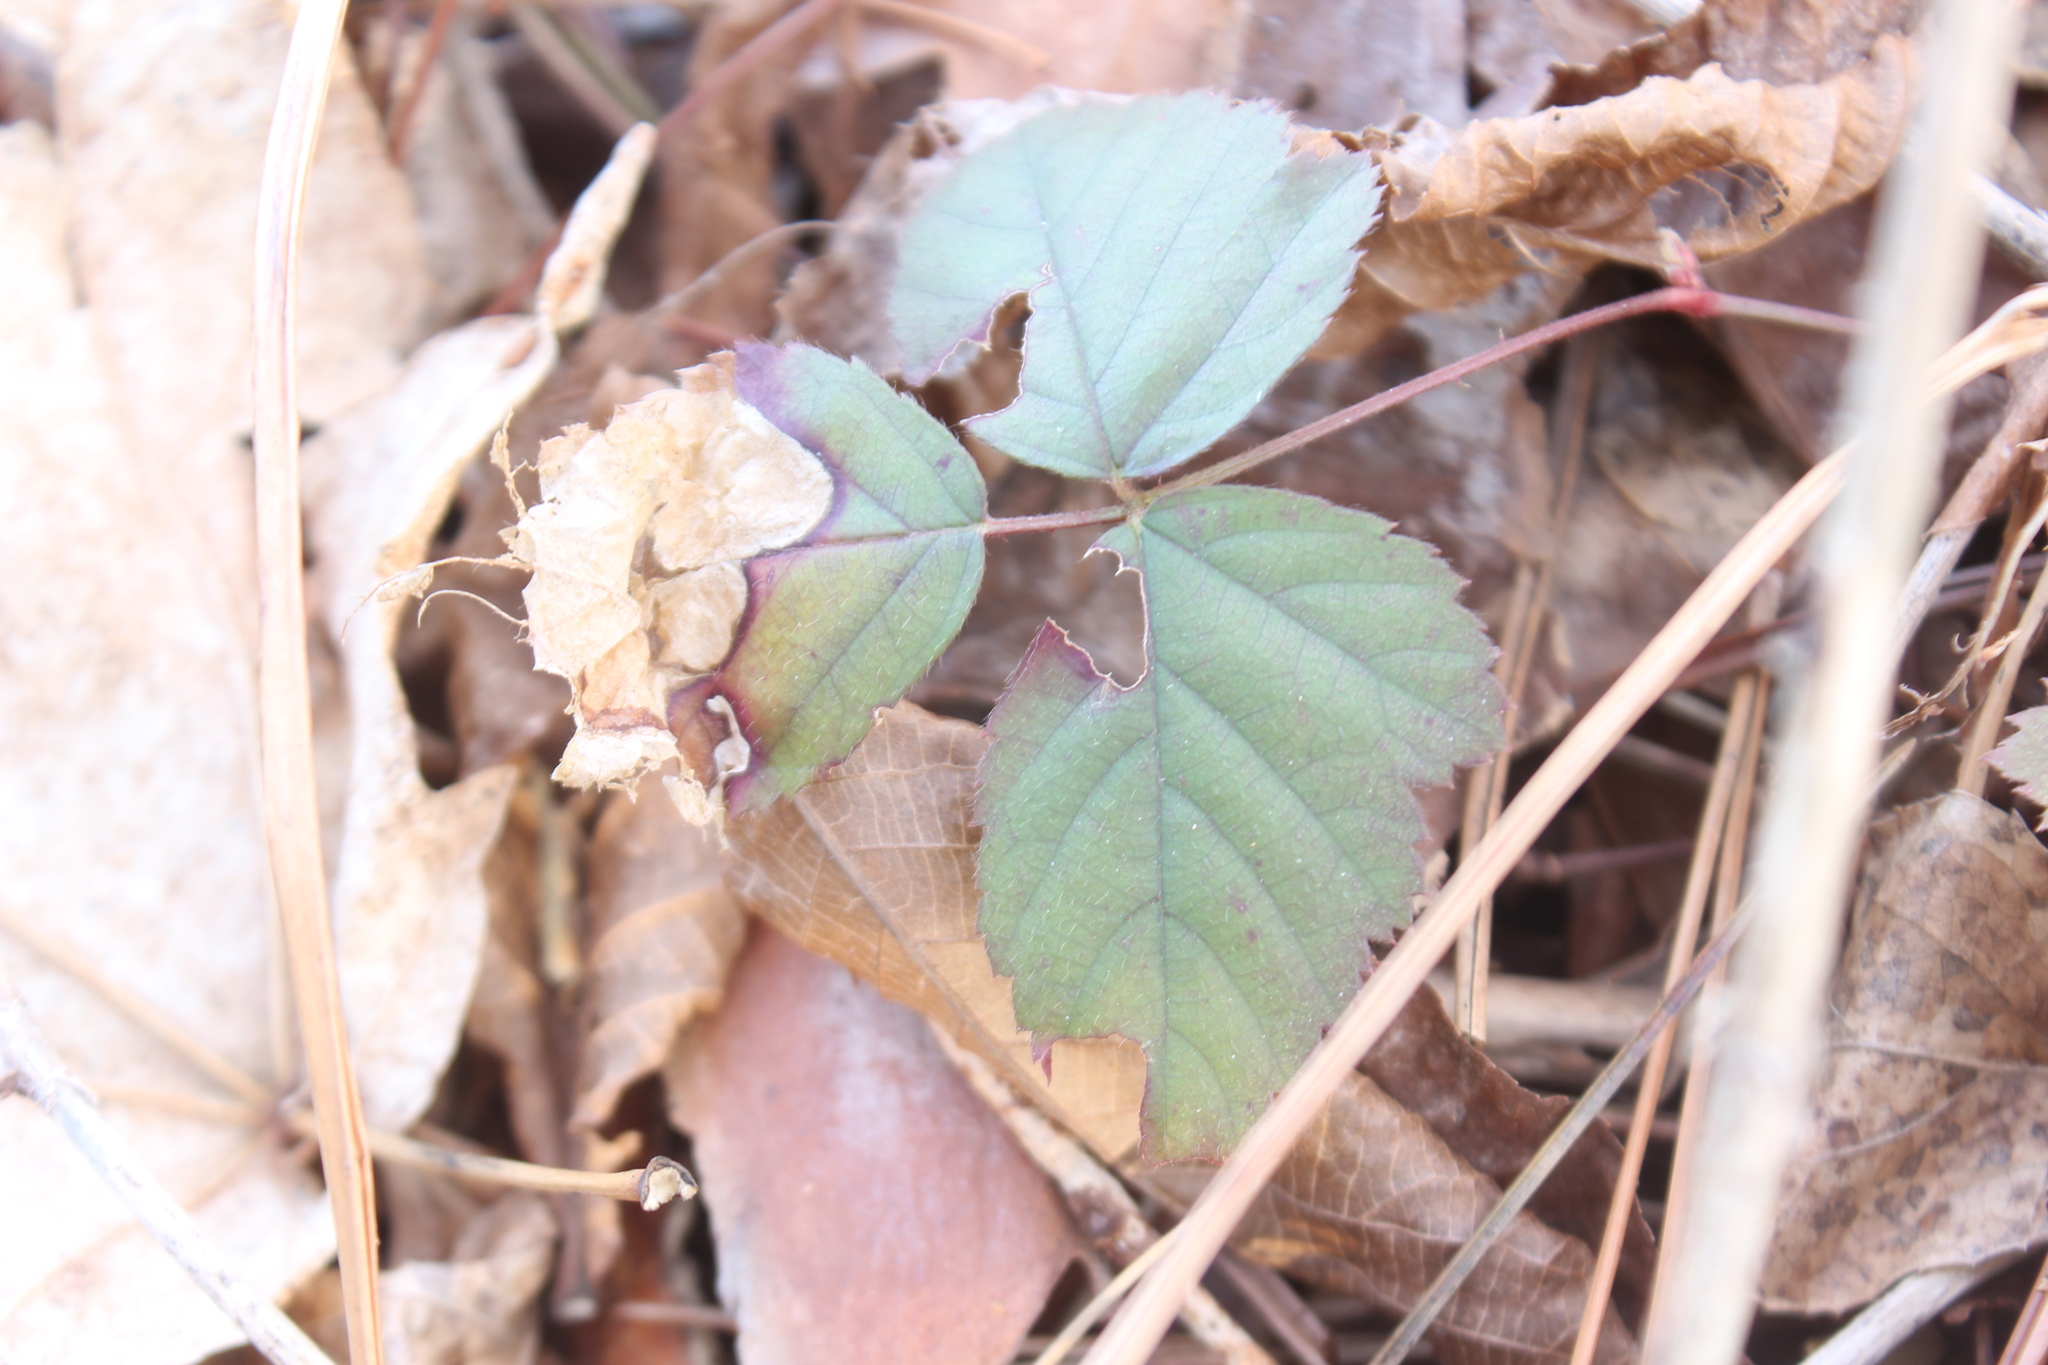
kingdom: Animalia
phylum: Arthropoda
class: Insecta
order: Hymenoptera
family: Tenthredinidae
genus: Metallus
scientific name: Metallus rohweri
